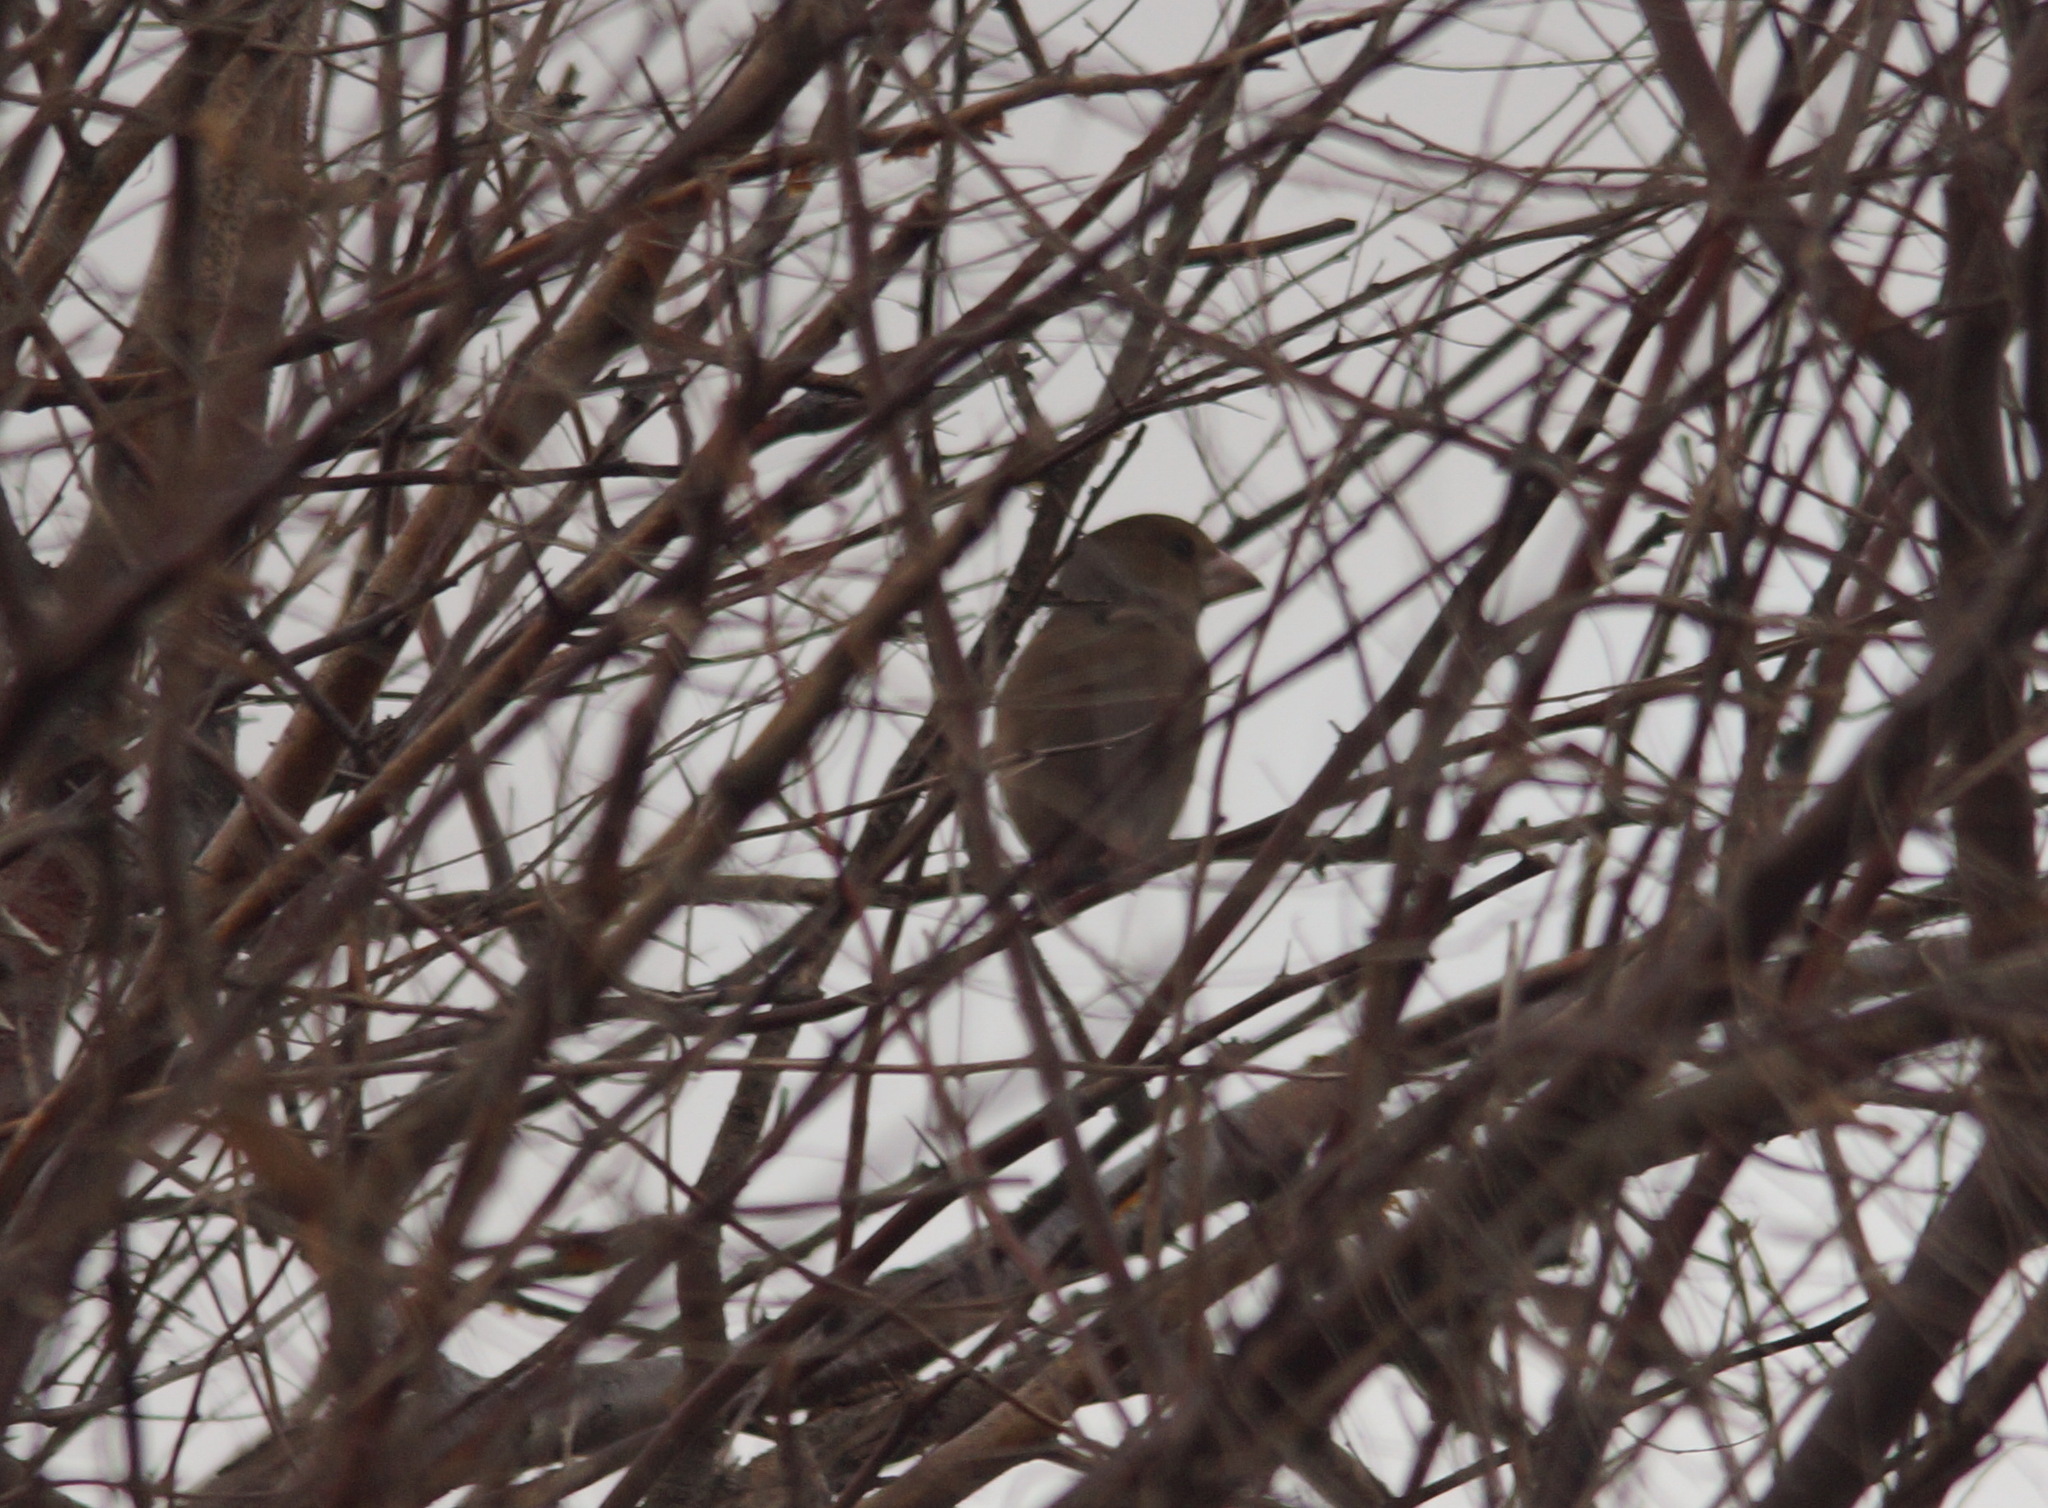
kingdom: Animalia
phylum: Chordata
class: Aves
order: Passeriformes
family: Fringillidae
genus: Coccothraustes
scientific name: Coccothraustes coccothraustes
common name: Hawfinch
